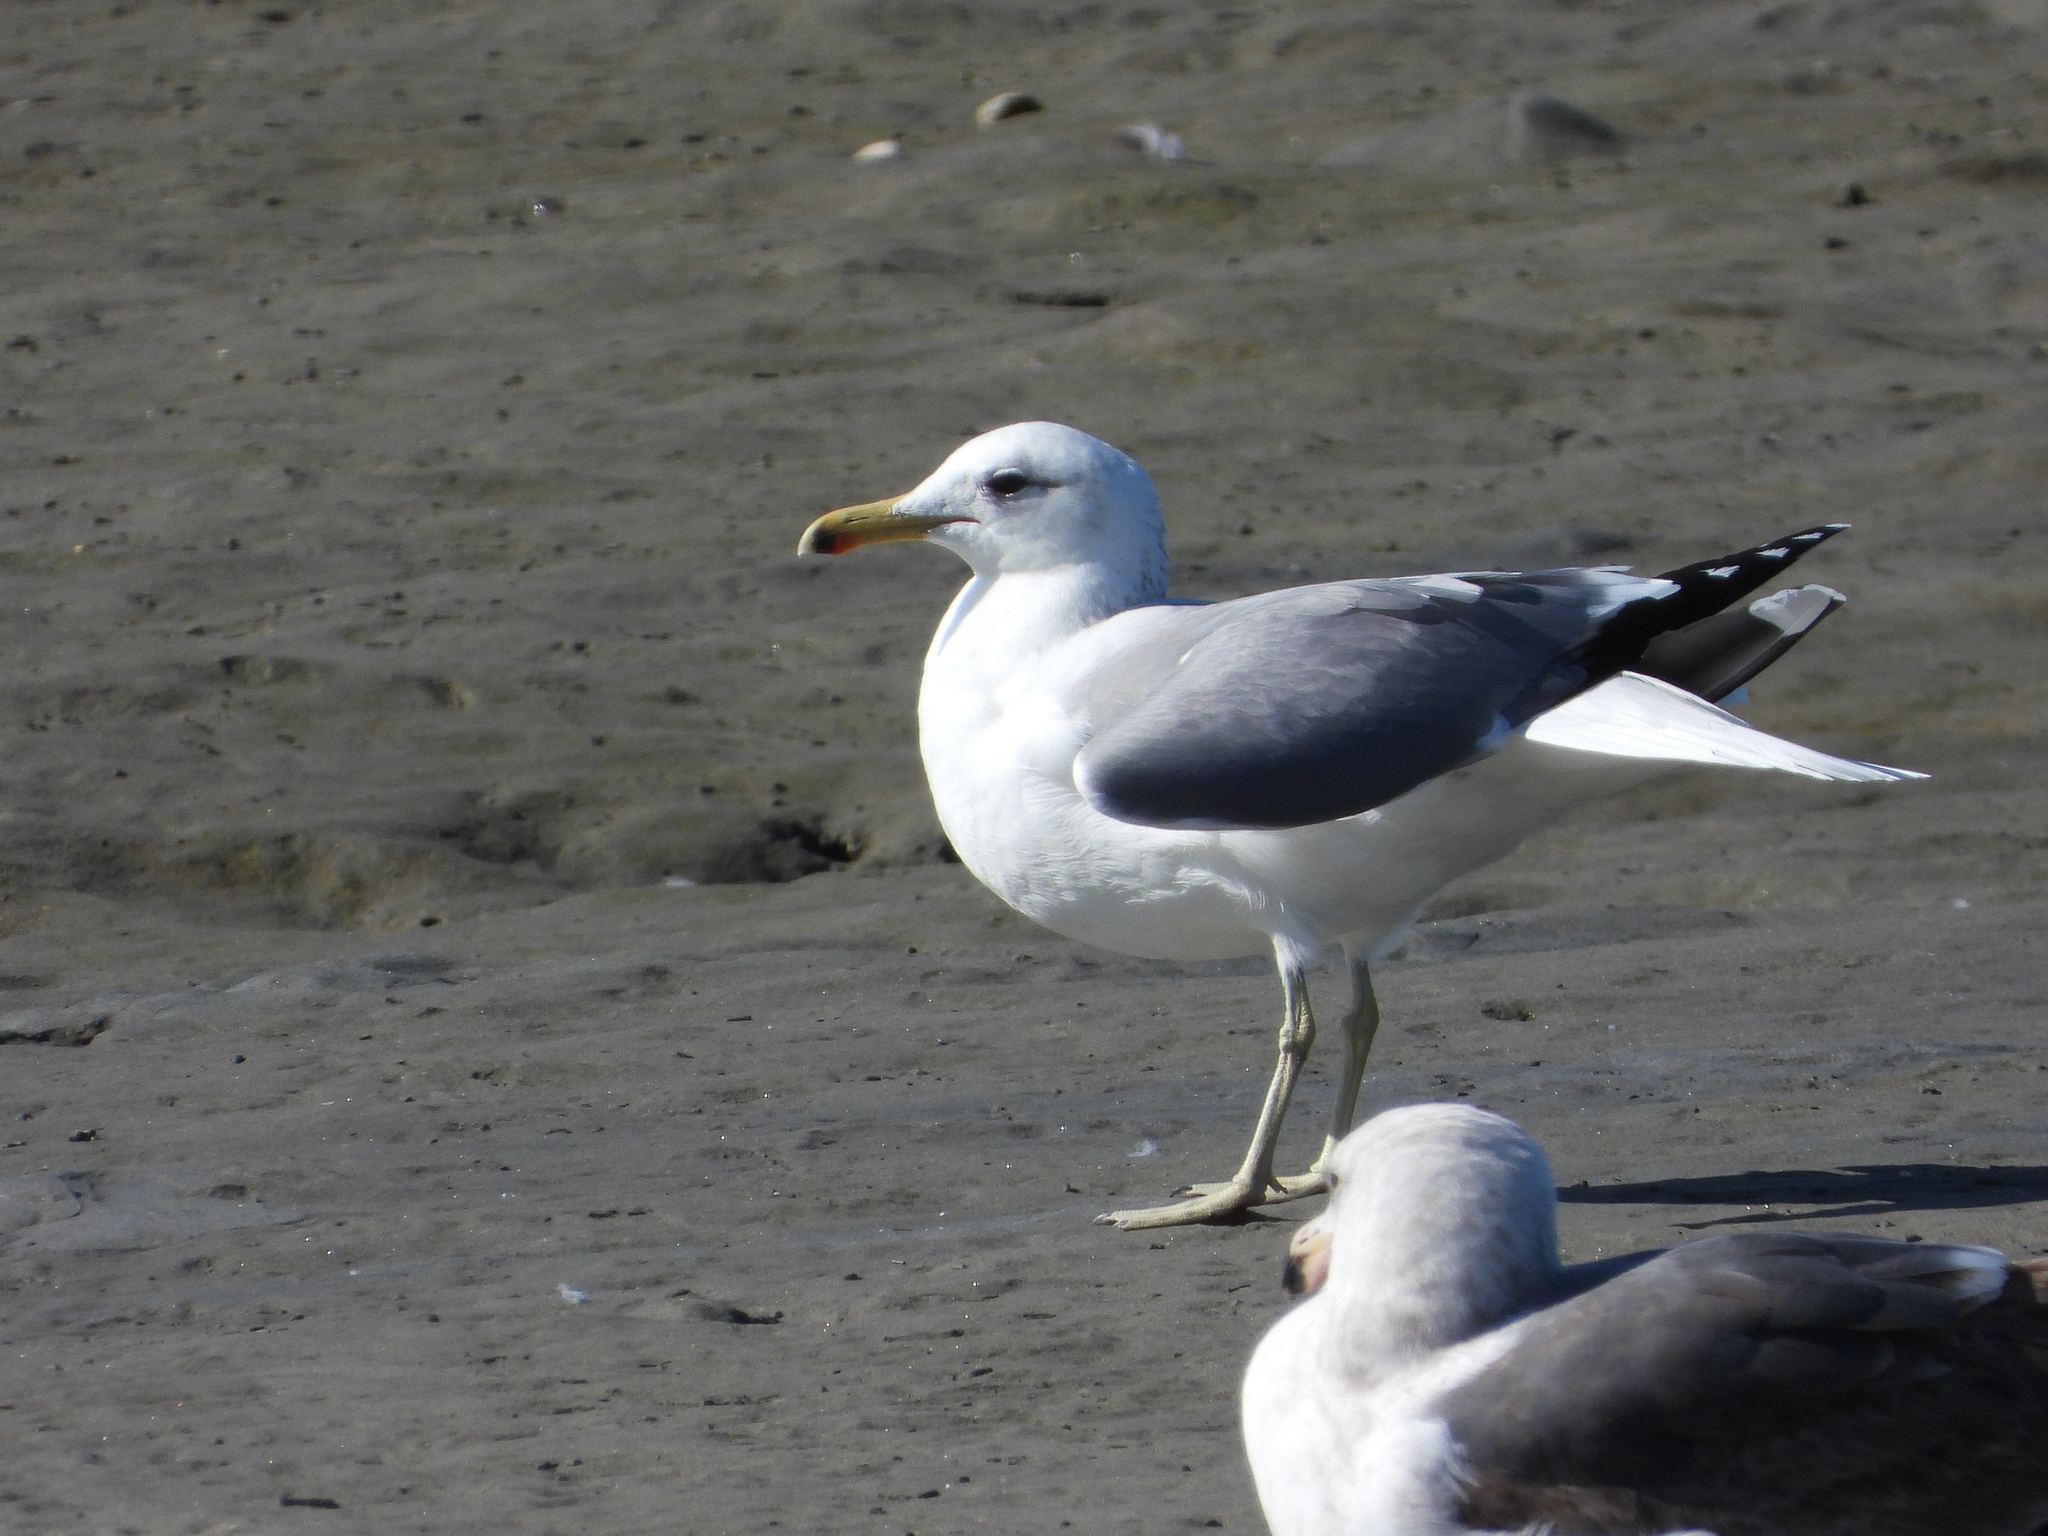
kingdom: Animalia
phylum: Chordata
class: Aves
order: Charadriiformes
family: Laridae
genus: Larus
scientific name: Larus californicus
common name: California gull
